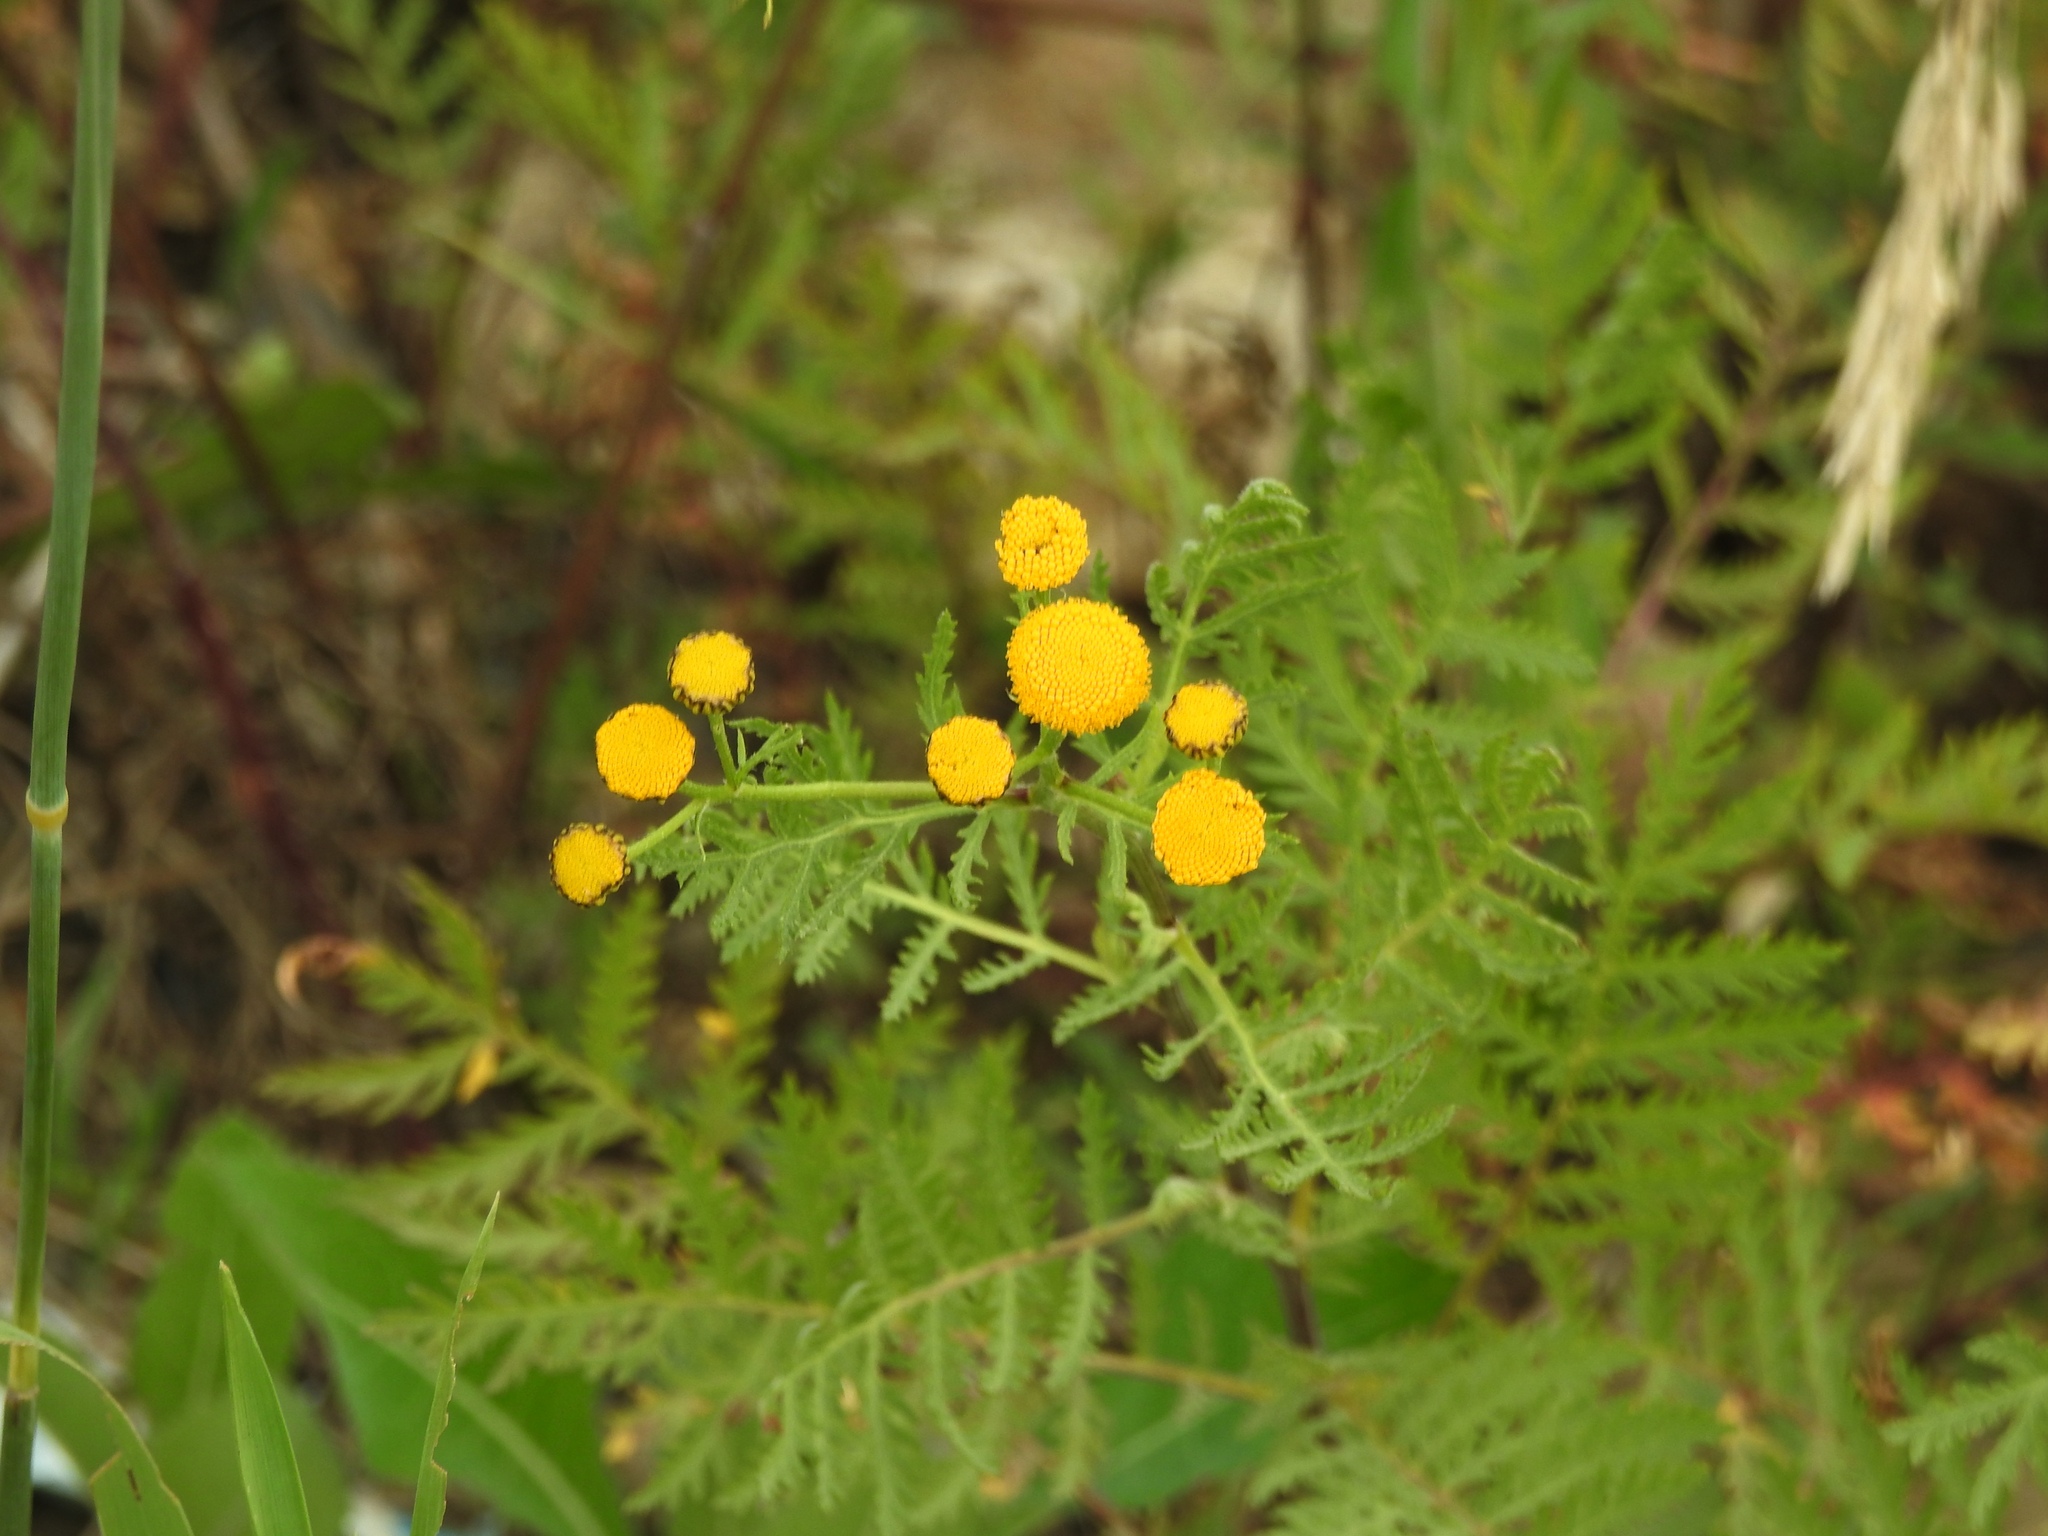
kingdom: Plantae
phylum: Tracheophyta
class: Magnoliopsida
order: Asterales
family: Asteraceae
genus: Tanacetum
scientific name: Tanacetum vulgare
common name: Common tansy
